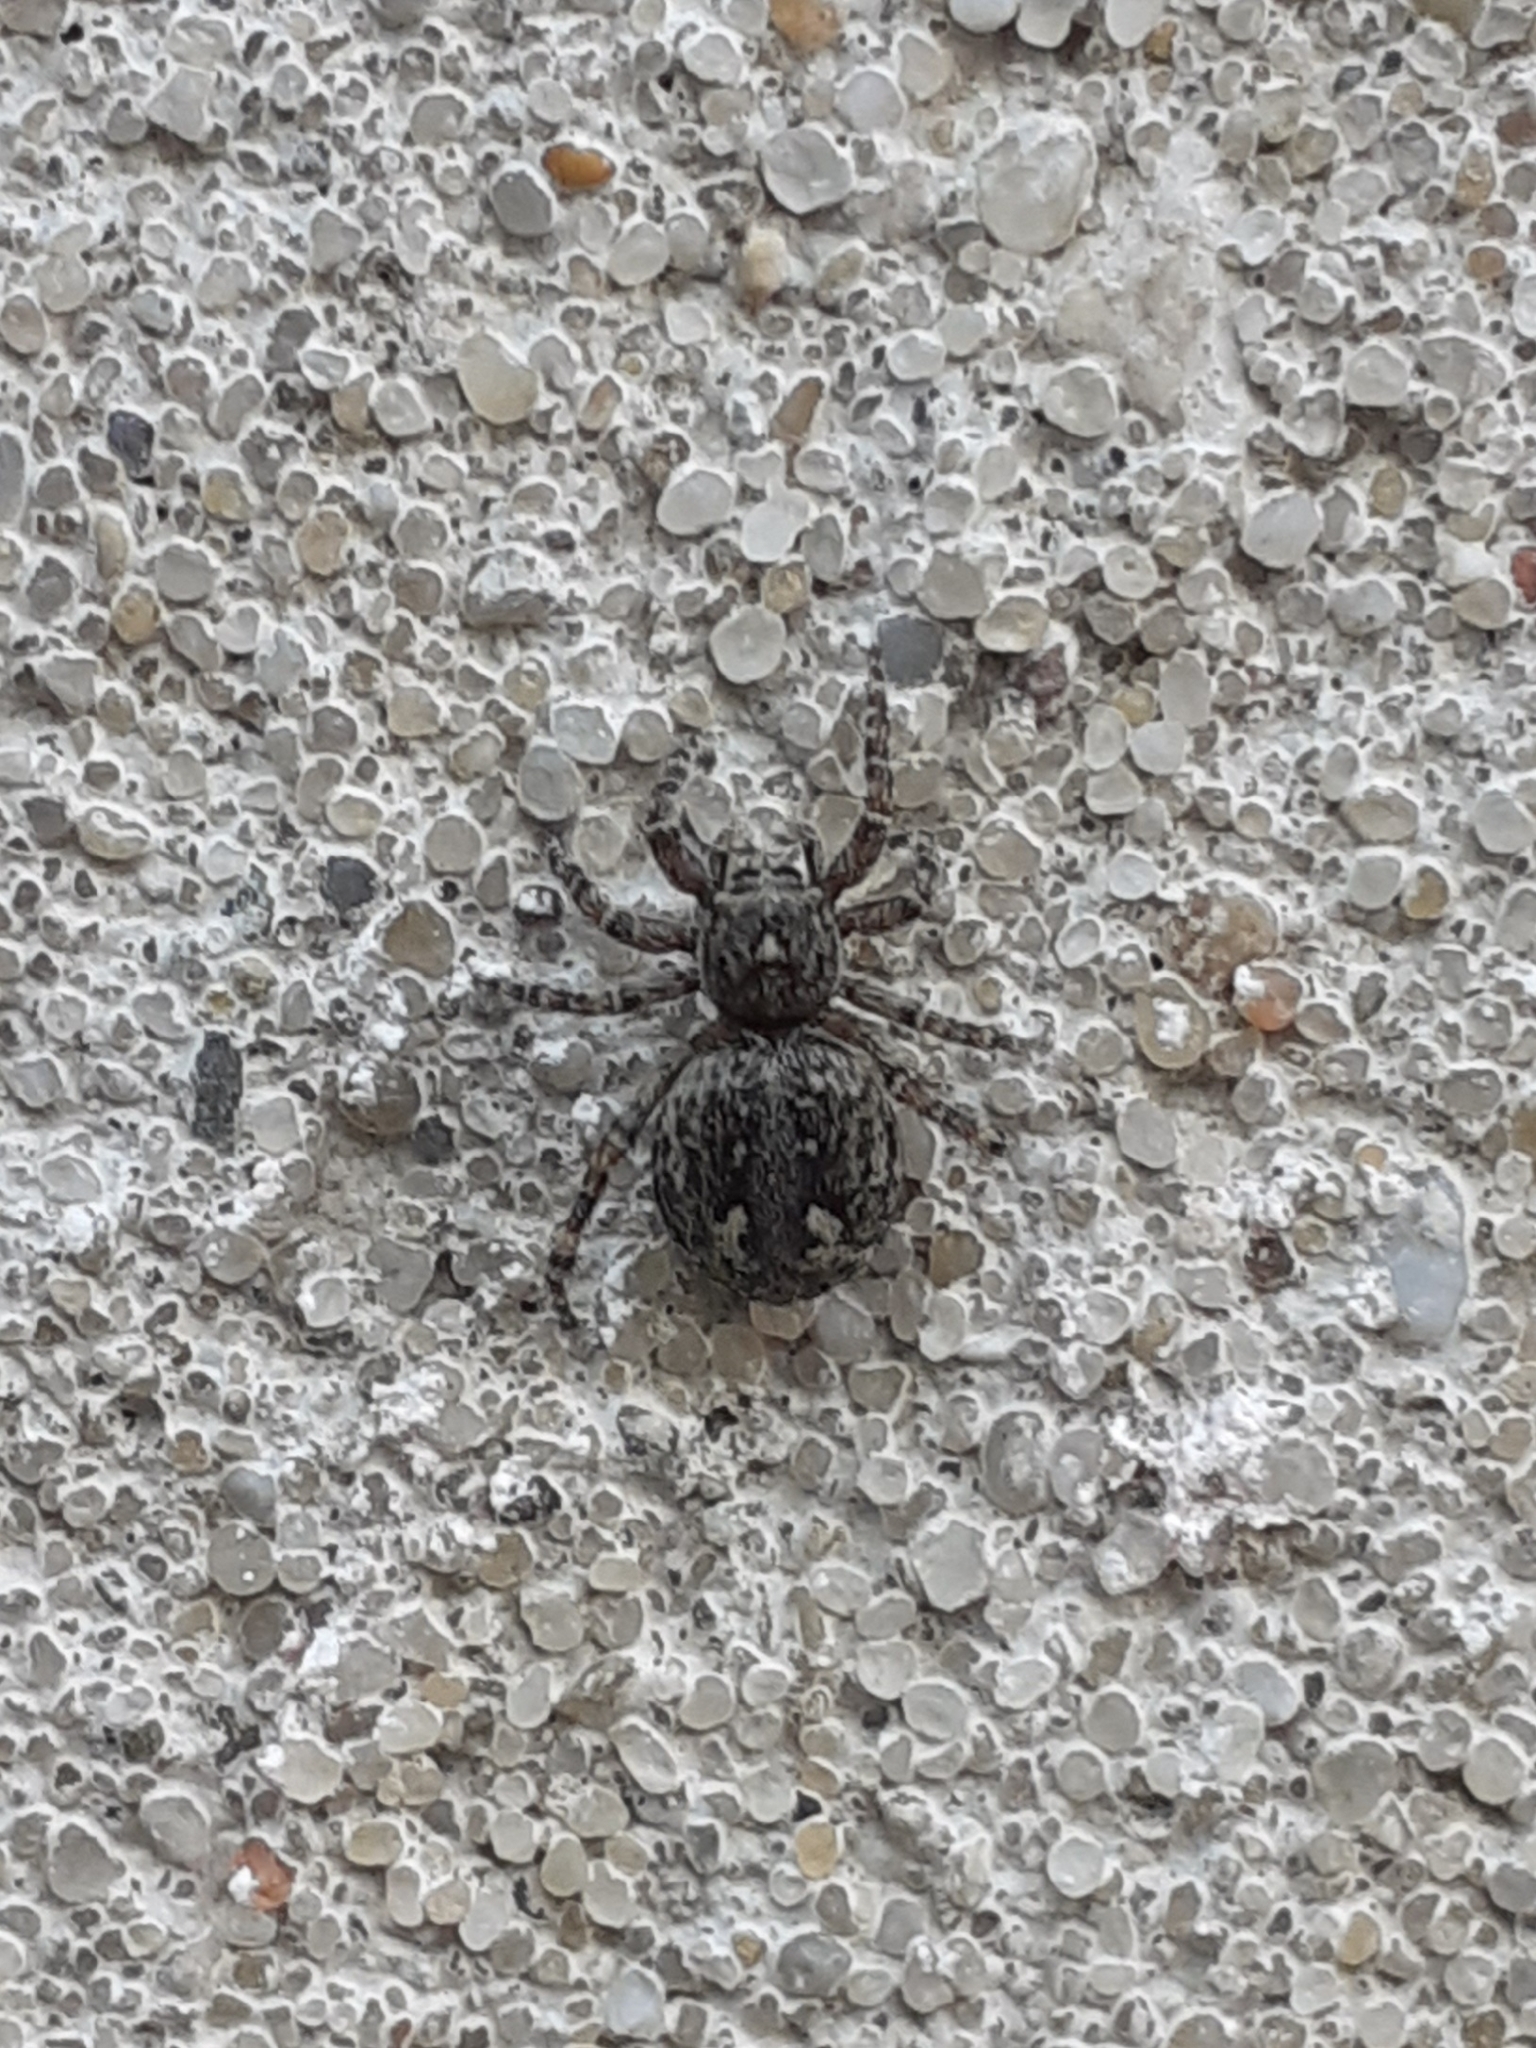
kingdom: Animalia
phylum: Arthropoda
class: Arachnida
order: Araneae
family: Salticidae
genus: Attulus
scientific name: Attulus pubescens
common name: Jumping spider
